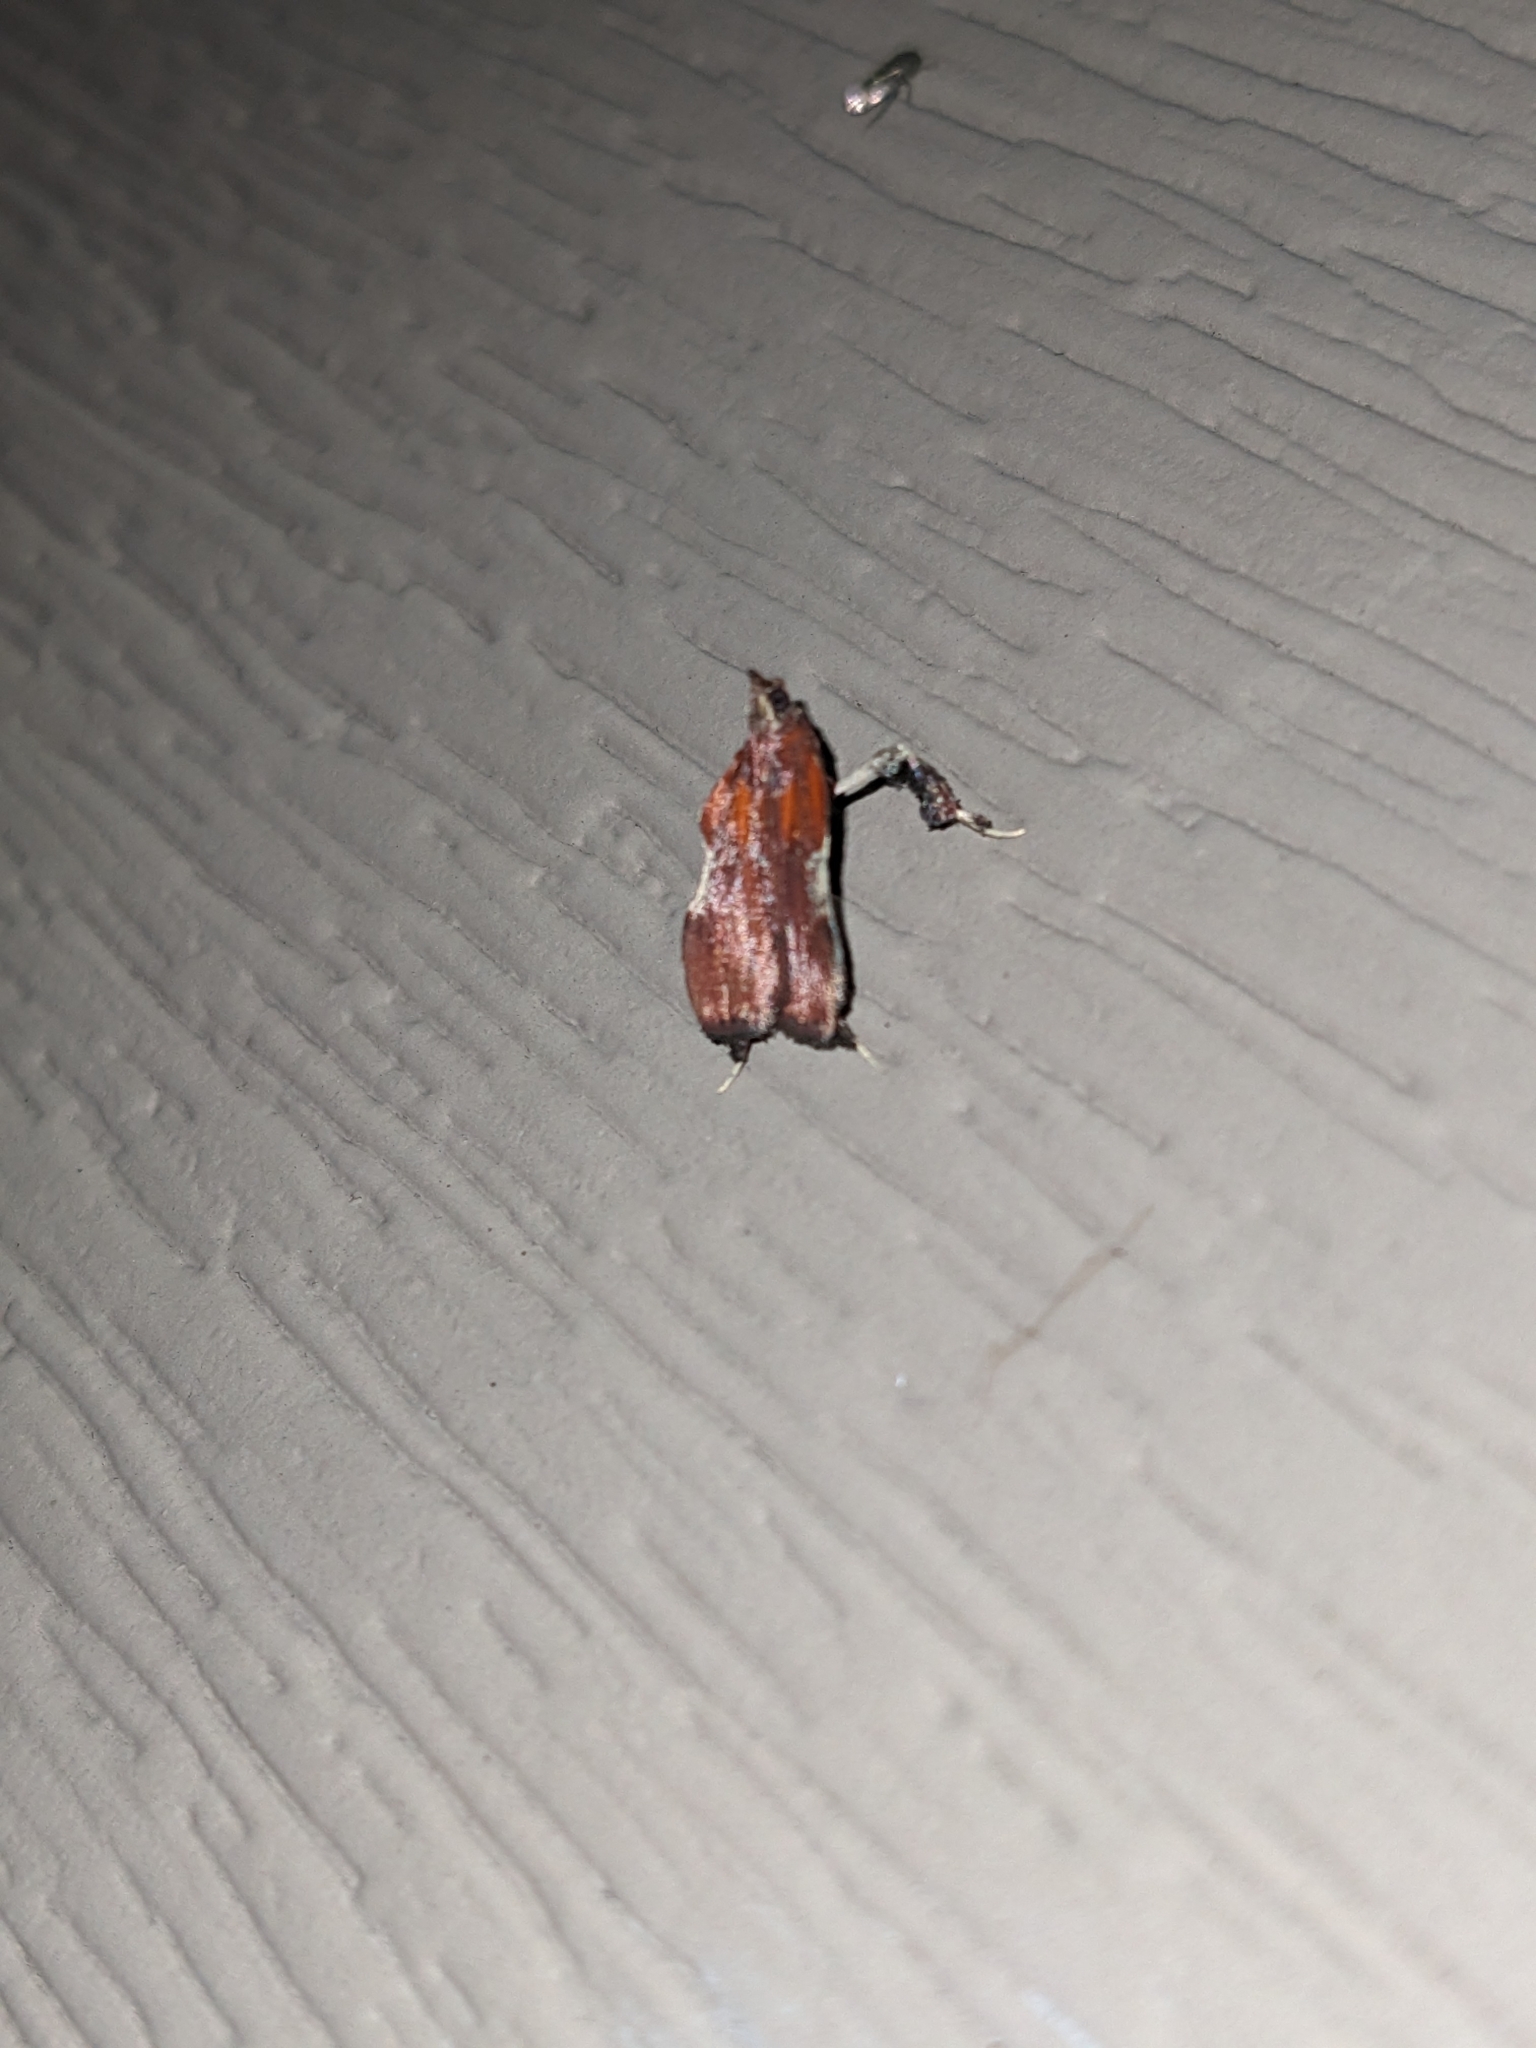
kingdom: Animalia
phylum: Arthropoda
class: Insecta
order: Lepidoptera
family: Pyralidae
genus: Galasa
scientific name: Galasa nigrinodis
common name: Boxwood leaftier moth
